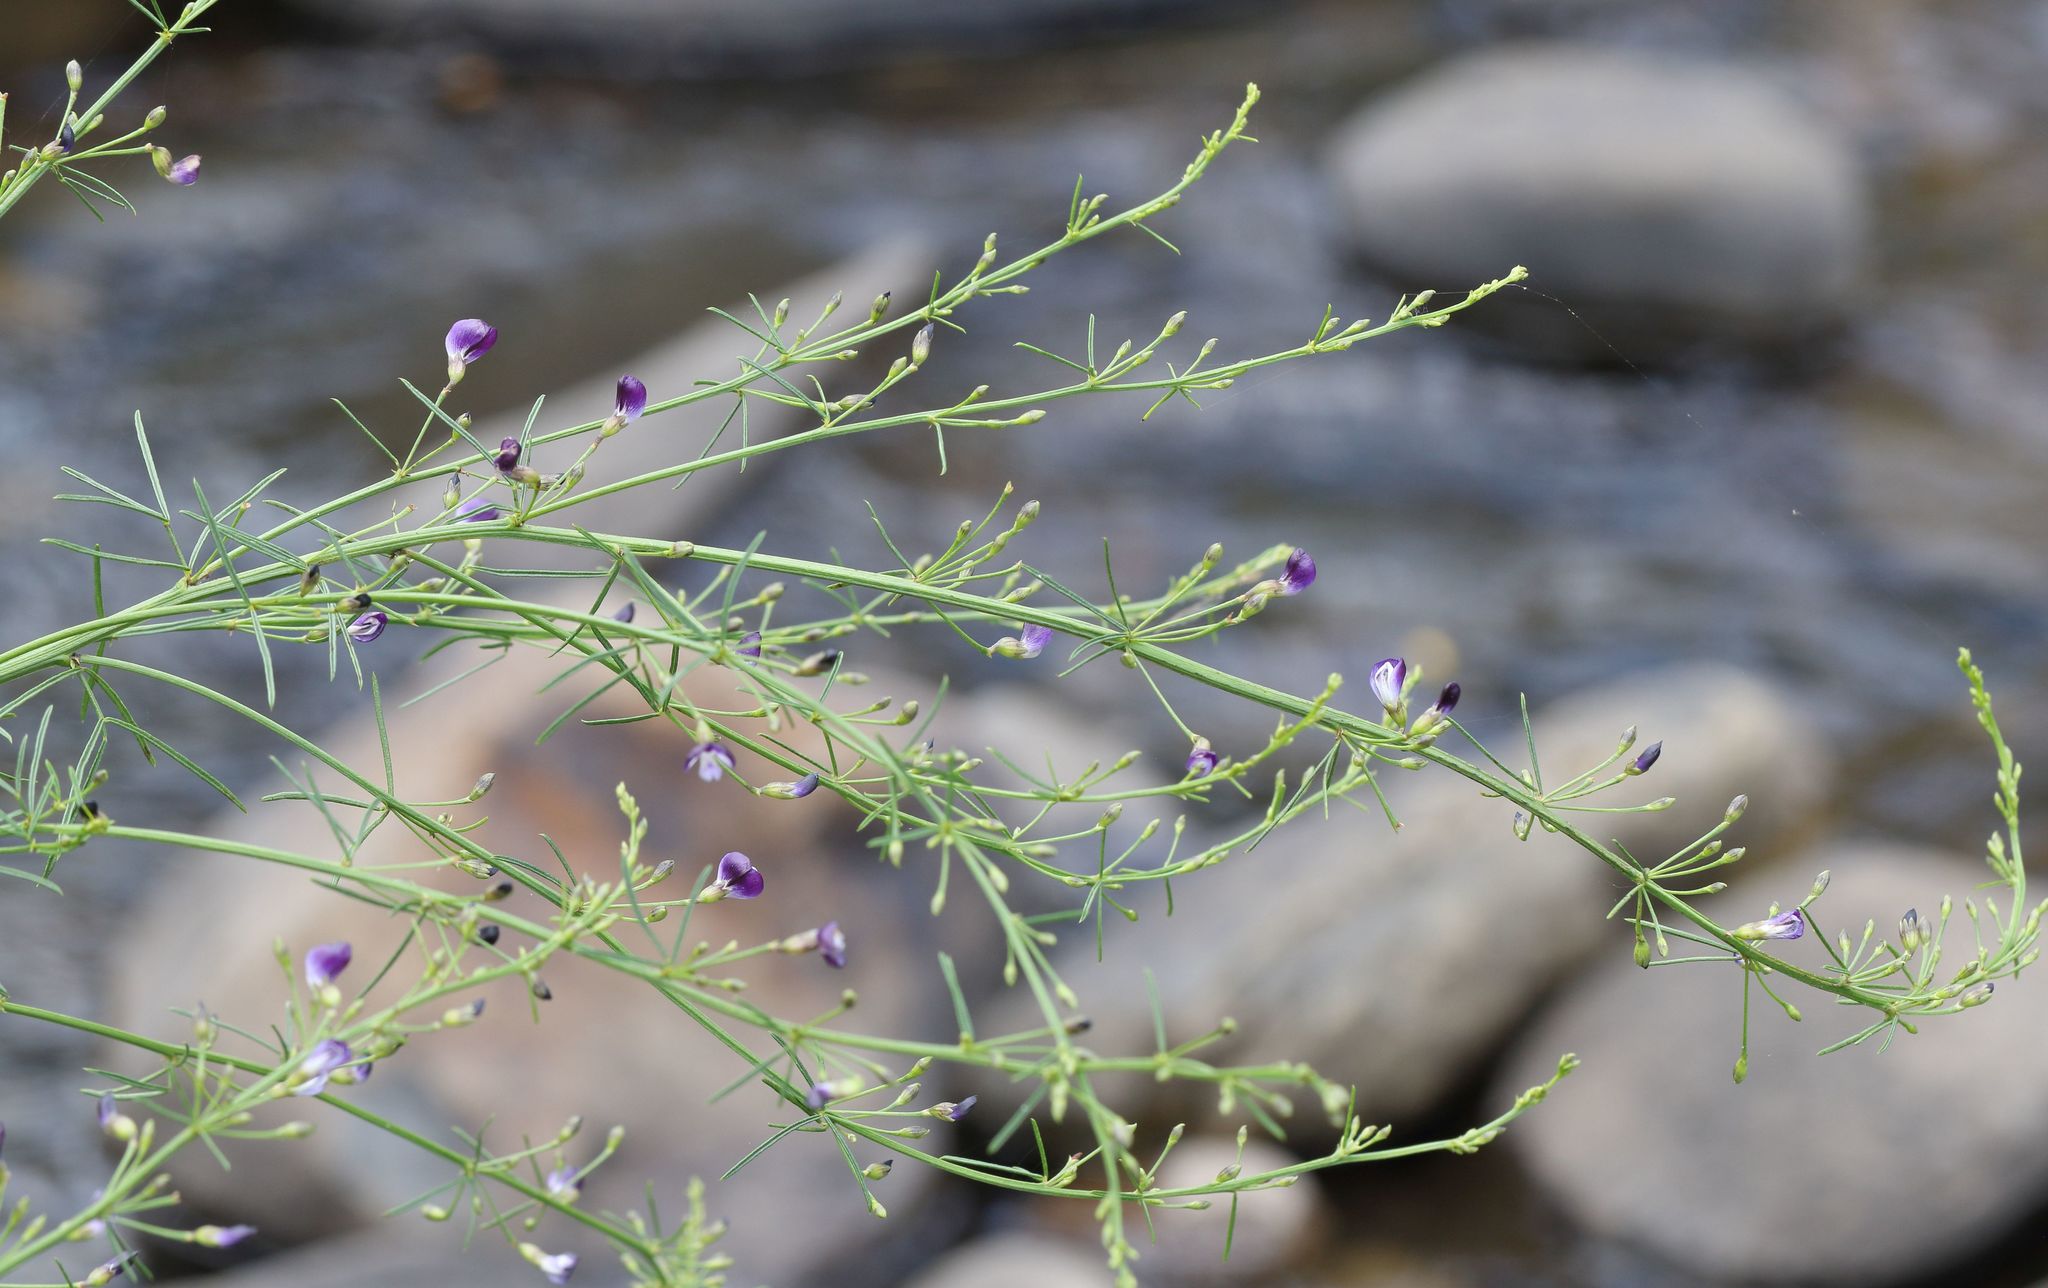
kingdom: Plantae
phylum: Tracheophyta
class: Magnoliopsida
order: Fabales
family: Fabaceae
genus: Psoralea
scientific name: Psoralea rhizotoma
